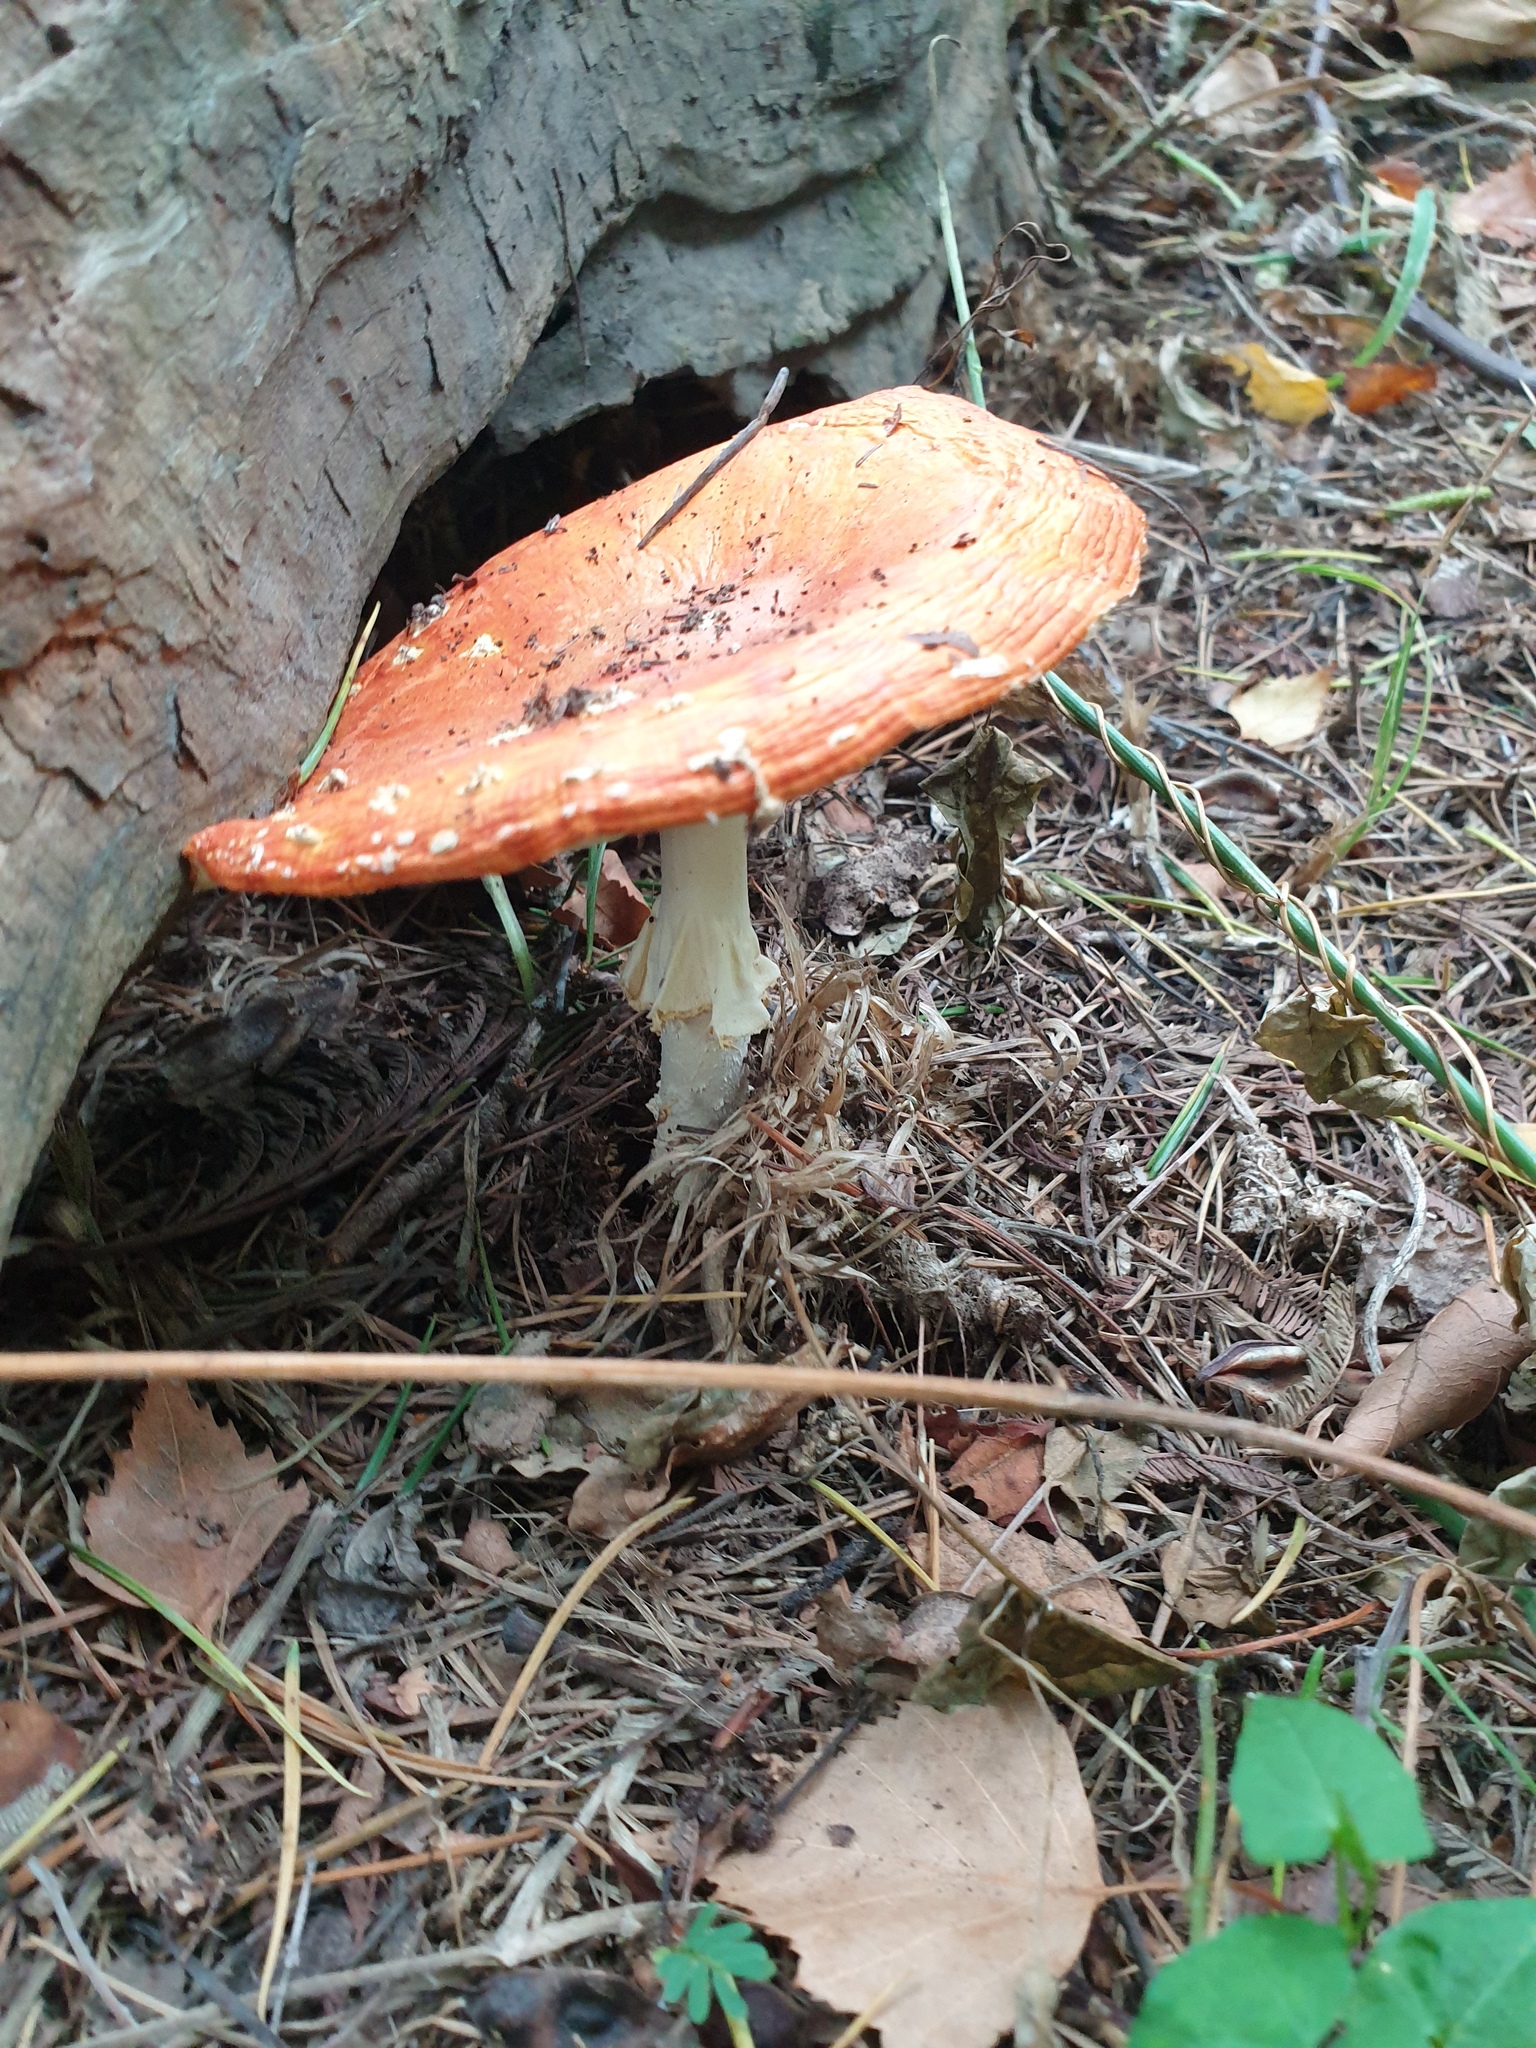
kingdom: Fungi
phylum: Basidiomycota
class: Agaricomycetes
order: Agaricales
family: Amanitaceae
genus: Amanita
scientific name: Amanita muscaria
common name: Fly agaric
